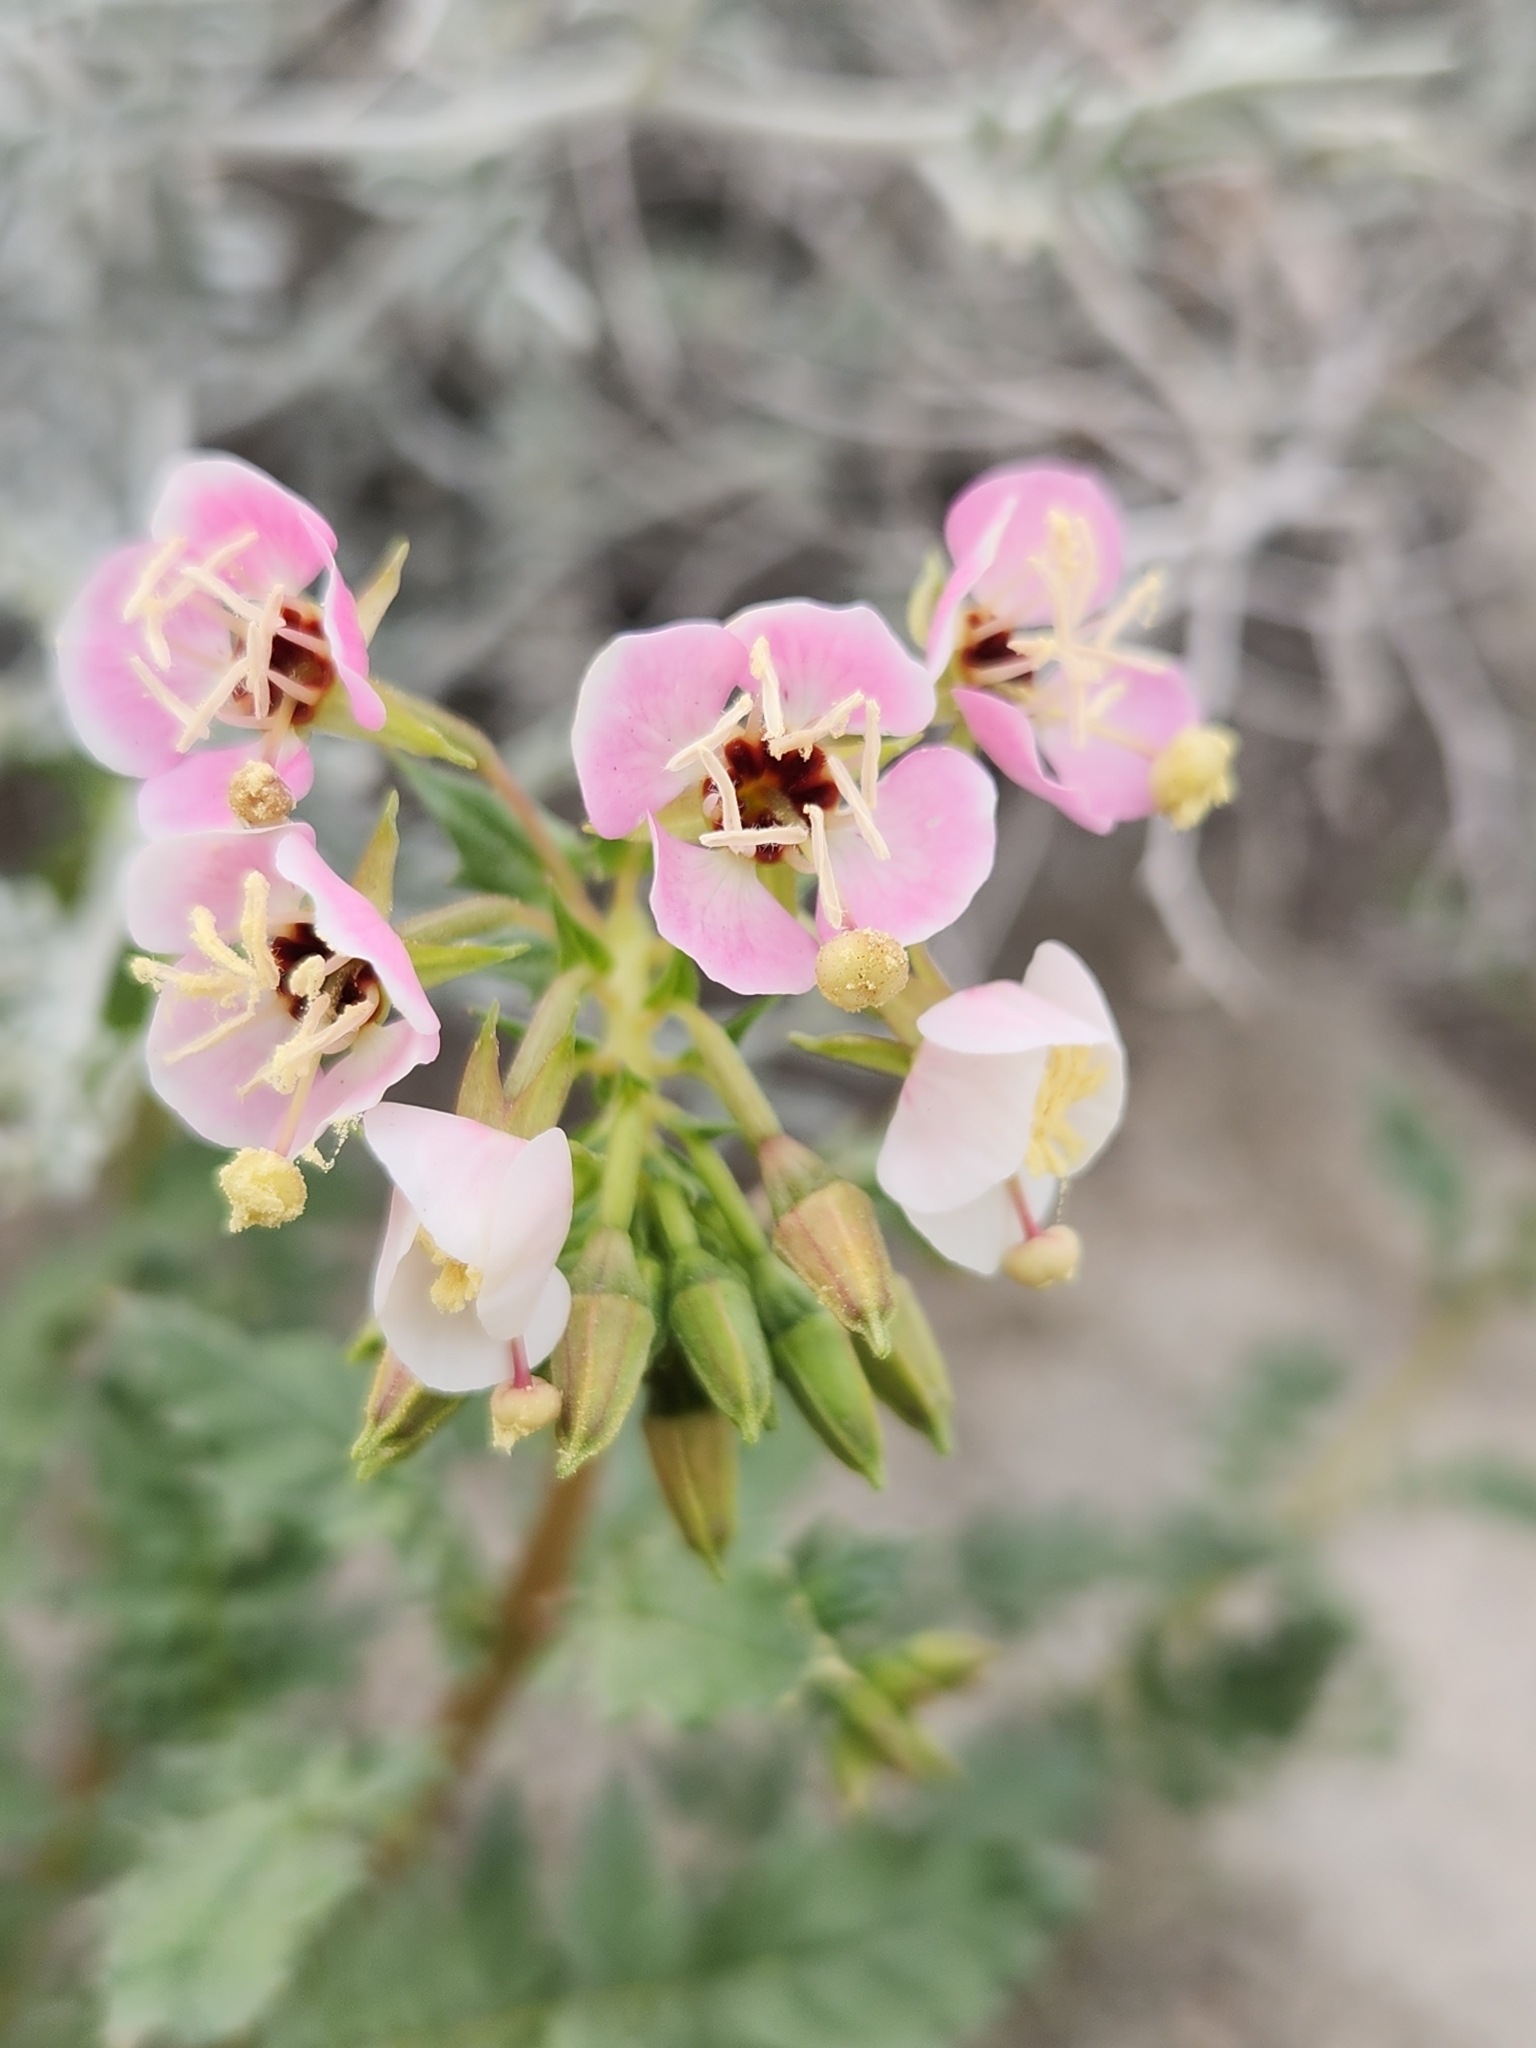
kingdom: Plantae
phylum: Tracheophyta
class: Magnoliopsida
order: Myrtales
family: Onagraceae
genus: Chylismia
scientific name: Chylismia claviformis
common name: Browneyes
